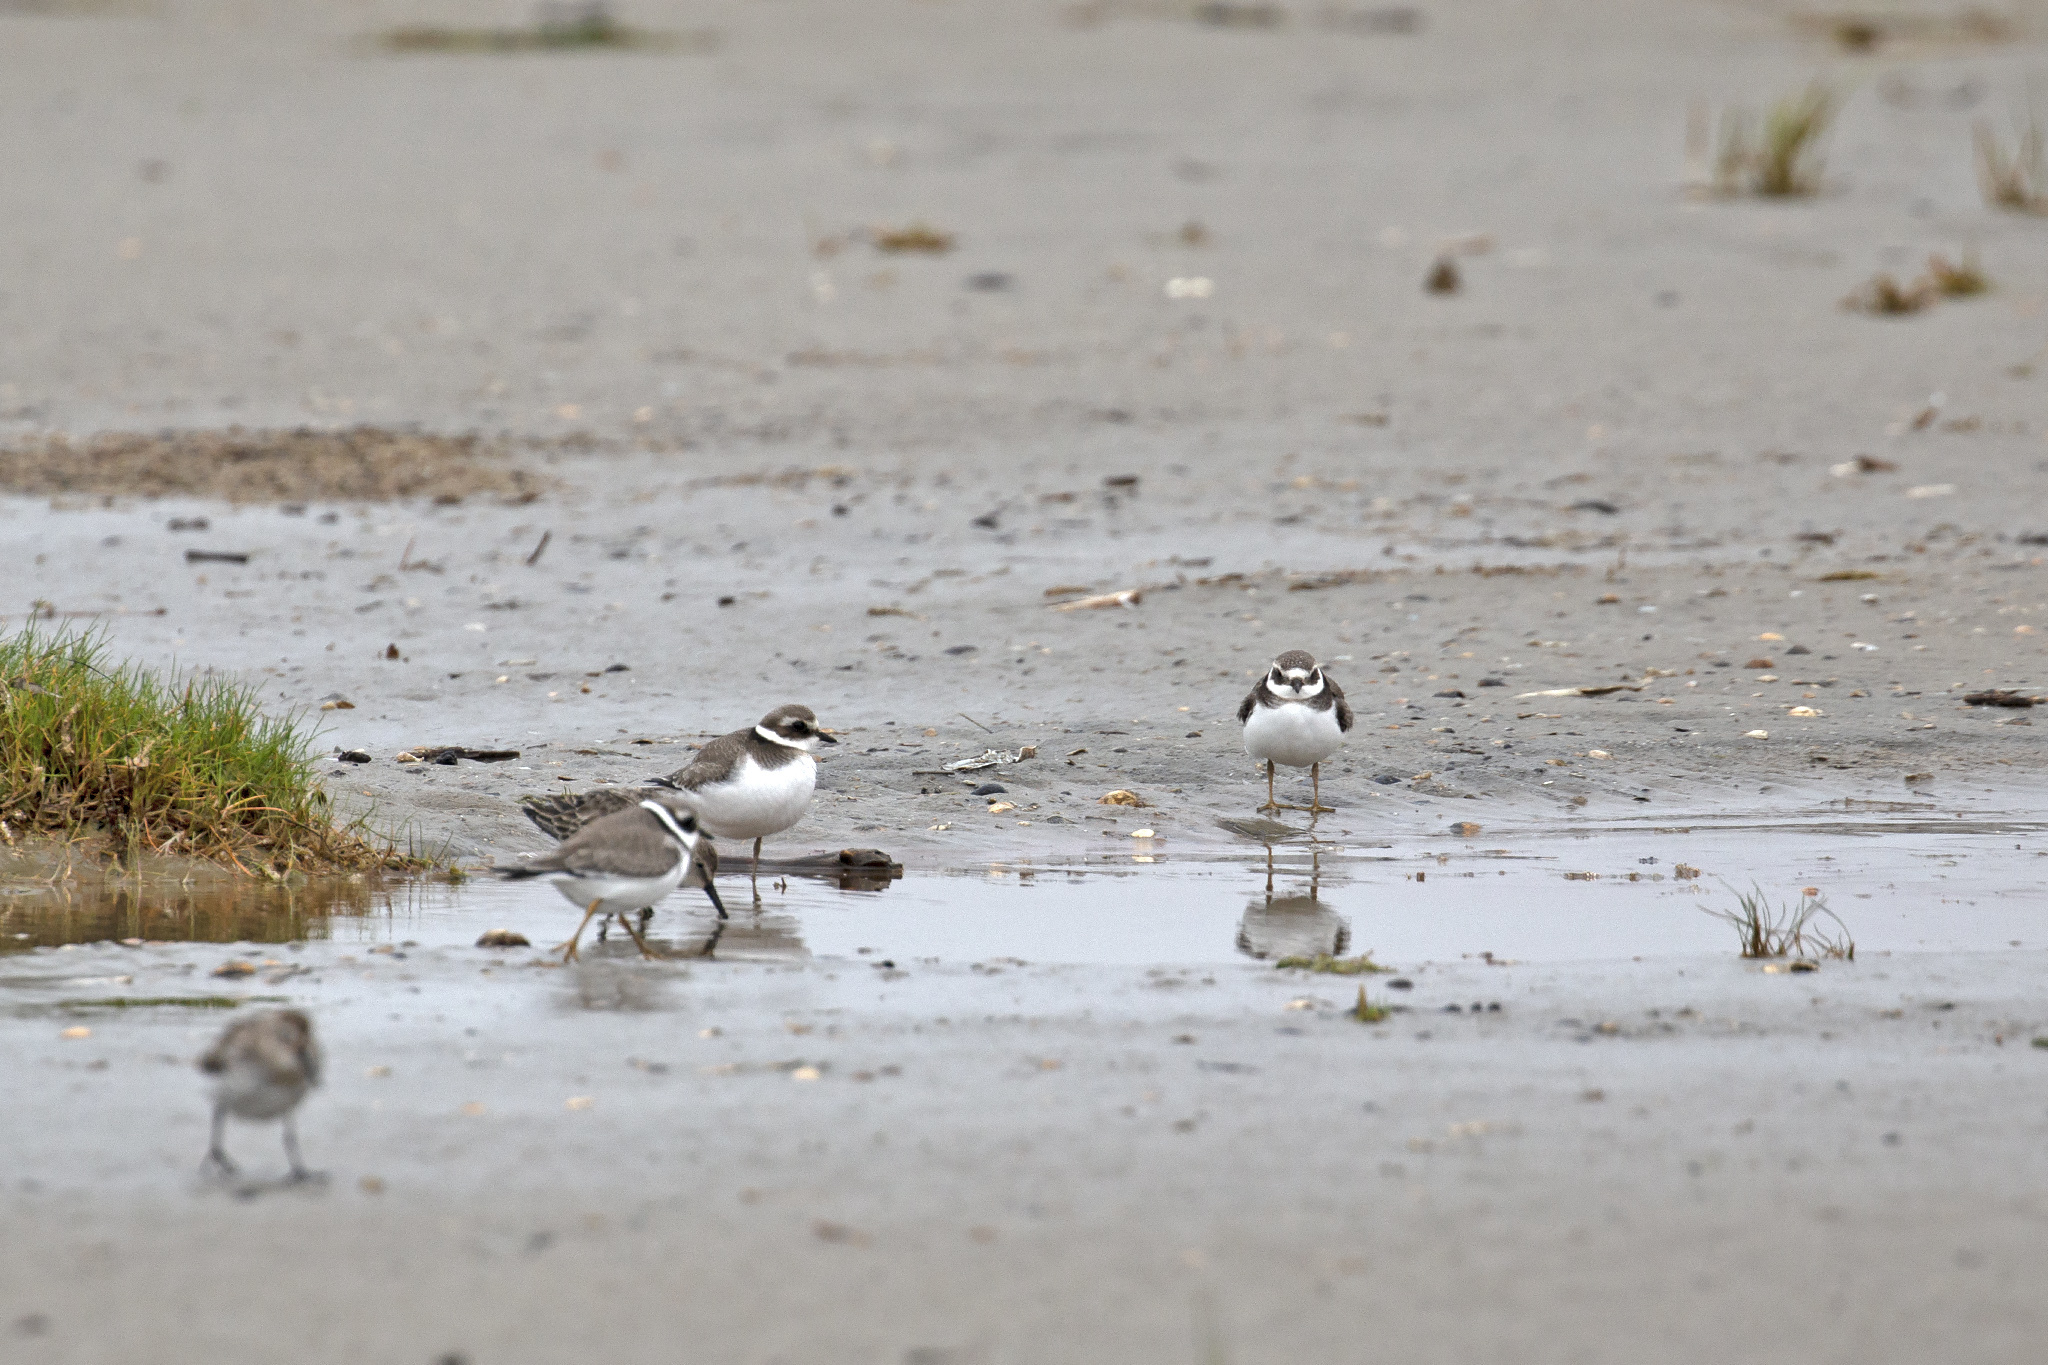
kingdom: Animalia
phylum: Chordata
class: Aves
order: Charadriiformes
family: Charadriidae
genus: Charadrius
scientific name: Charadrius hiaticula
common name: Common ringed plover
